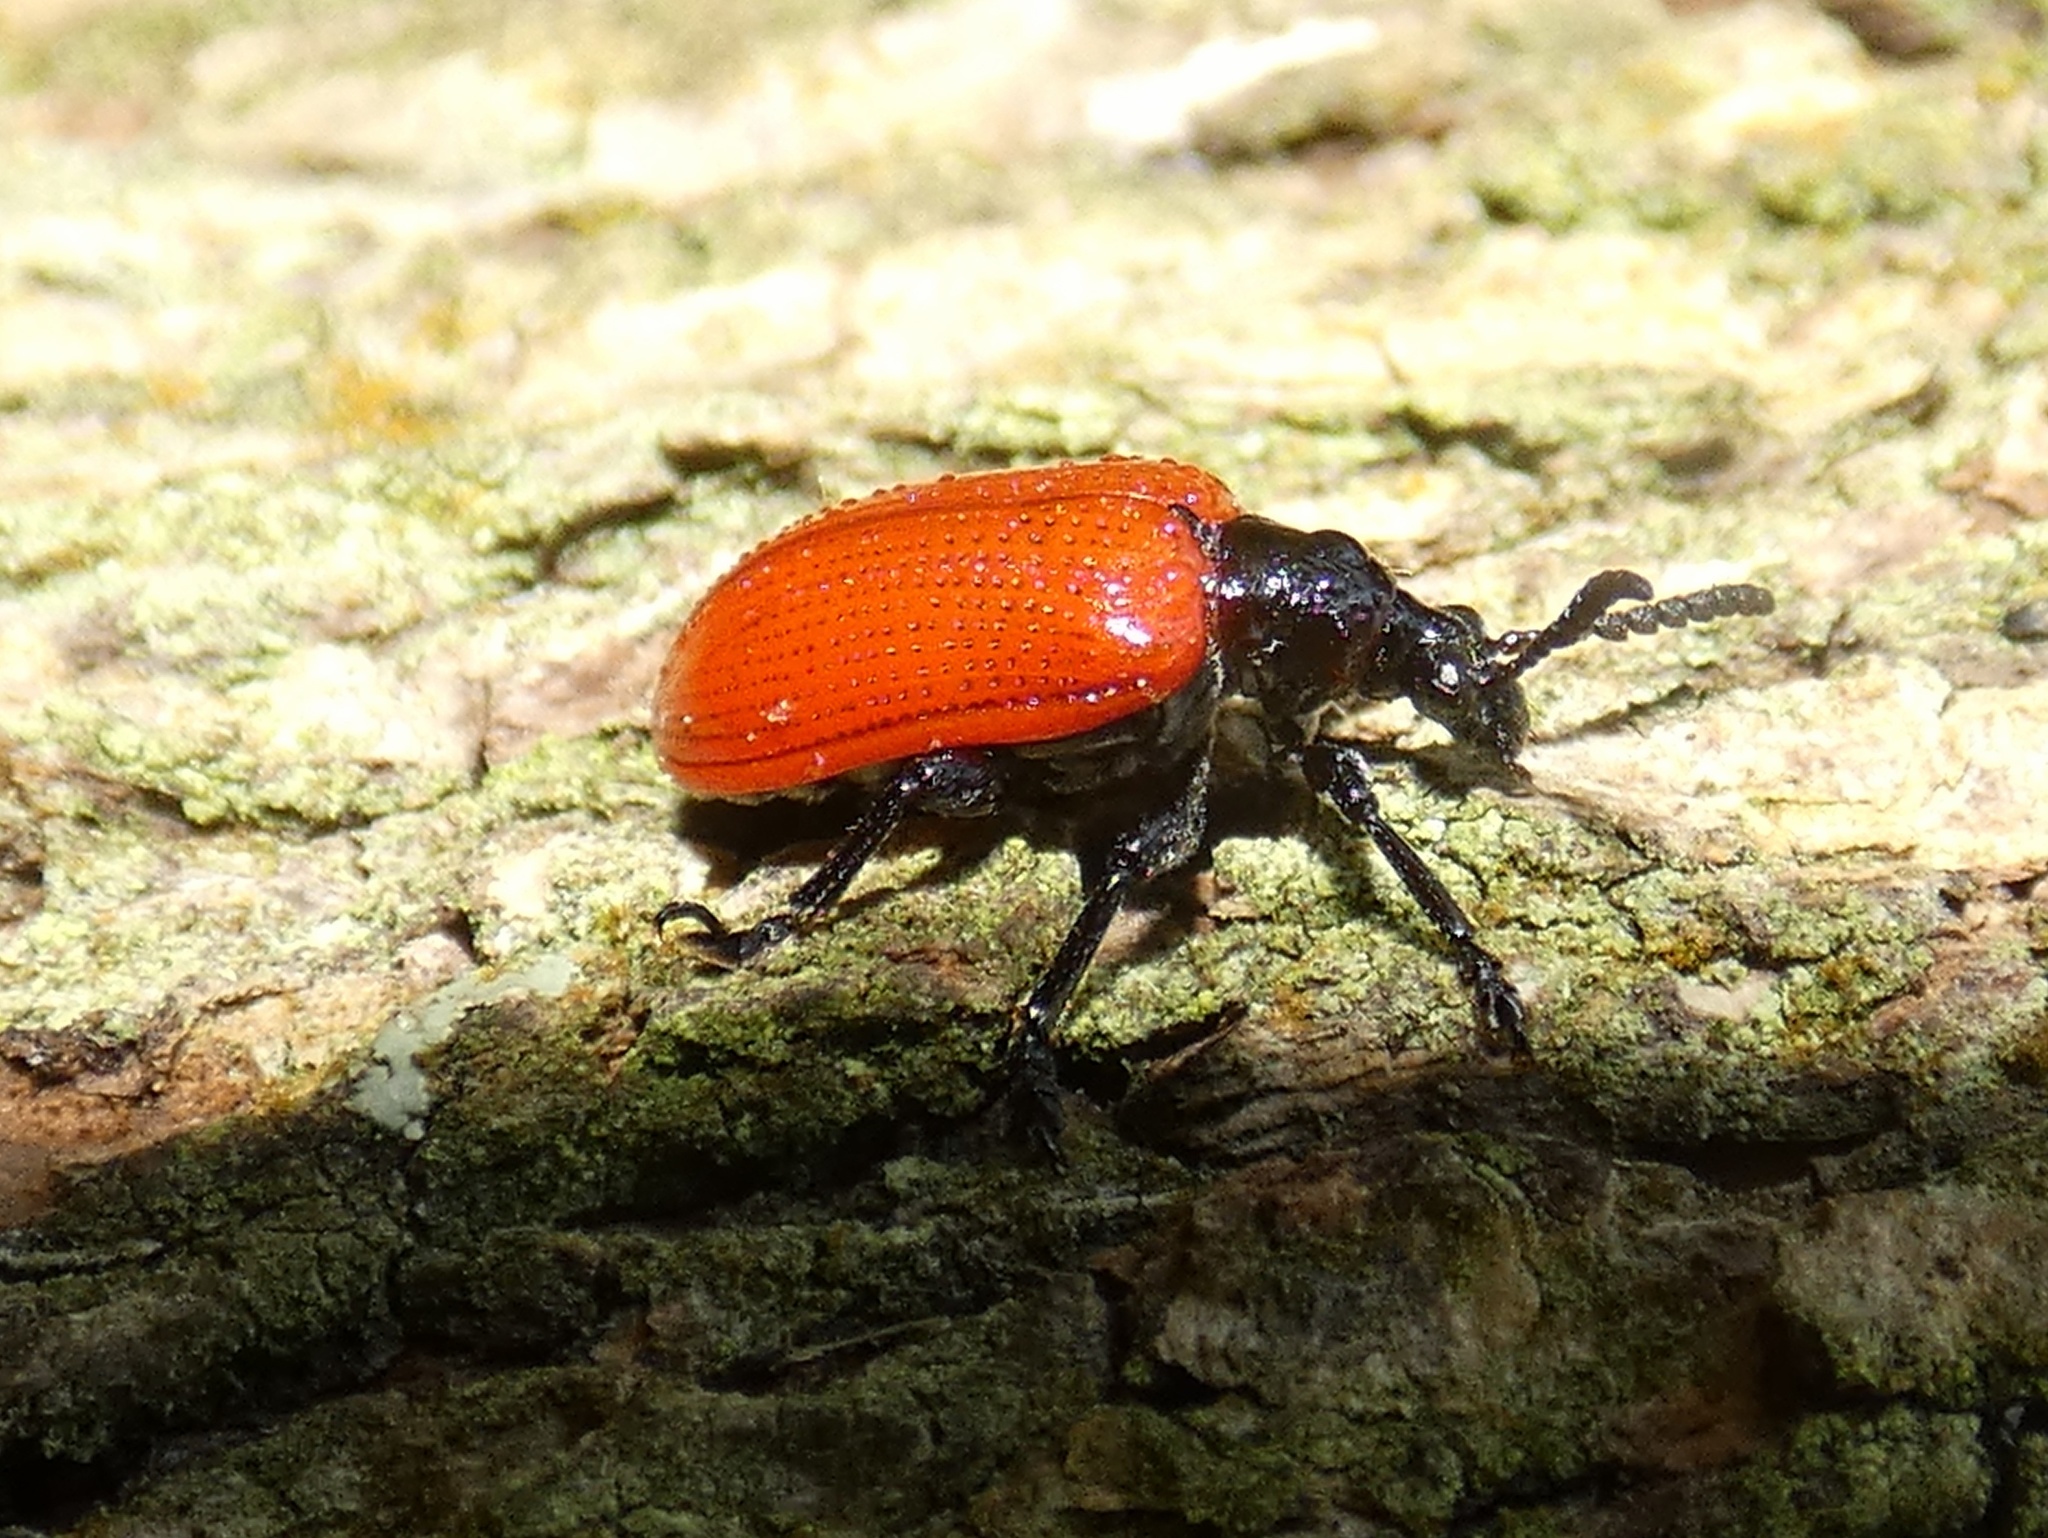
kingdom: Animalia
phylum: Arthropoda
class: Insecta
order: Coleoptera
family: Chrysomelidae
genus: Lilioceris
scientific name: Lilioceris cheni
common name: Leaf beetle
